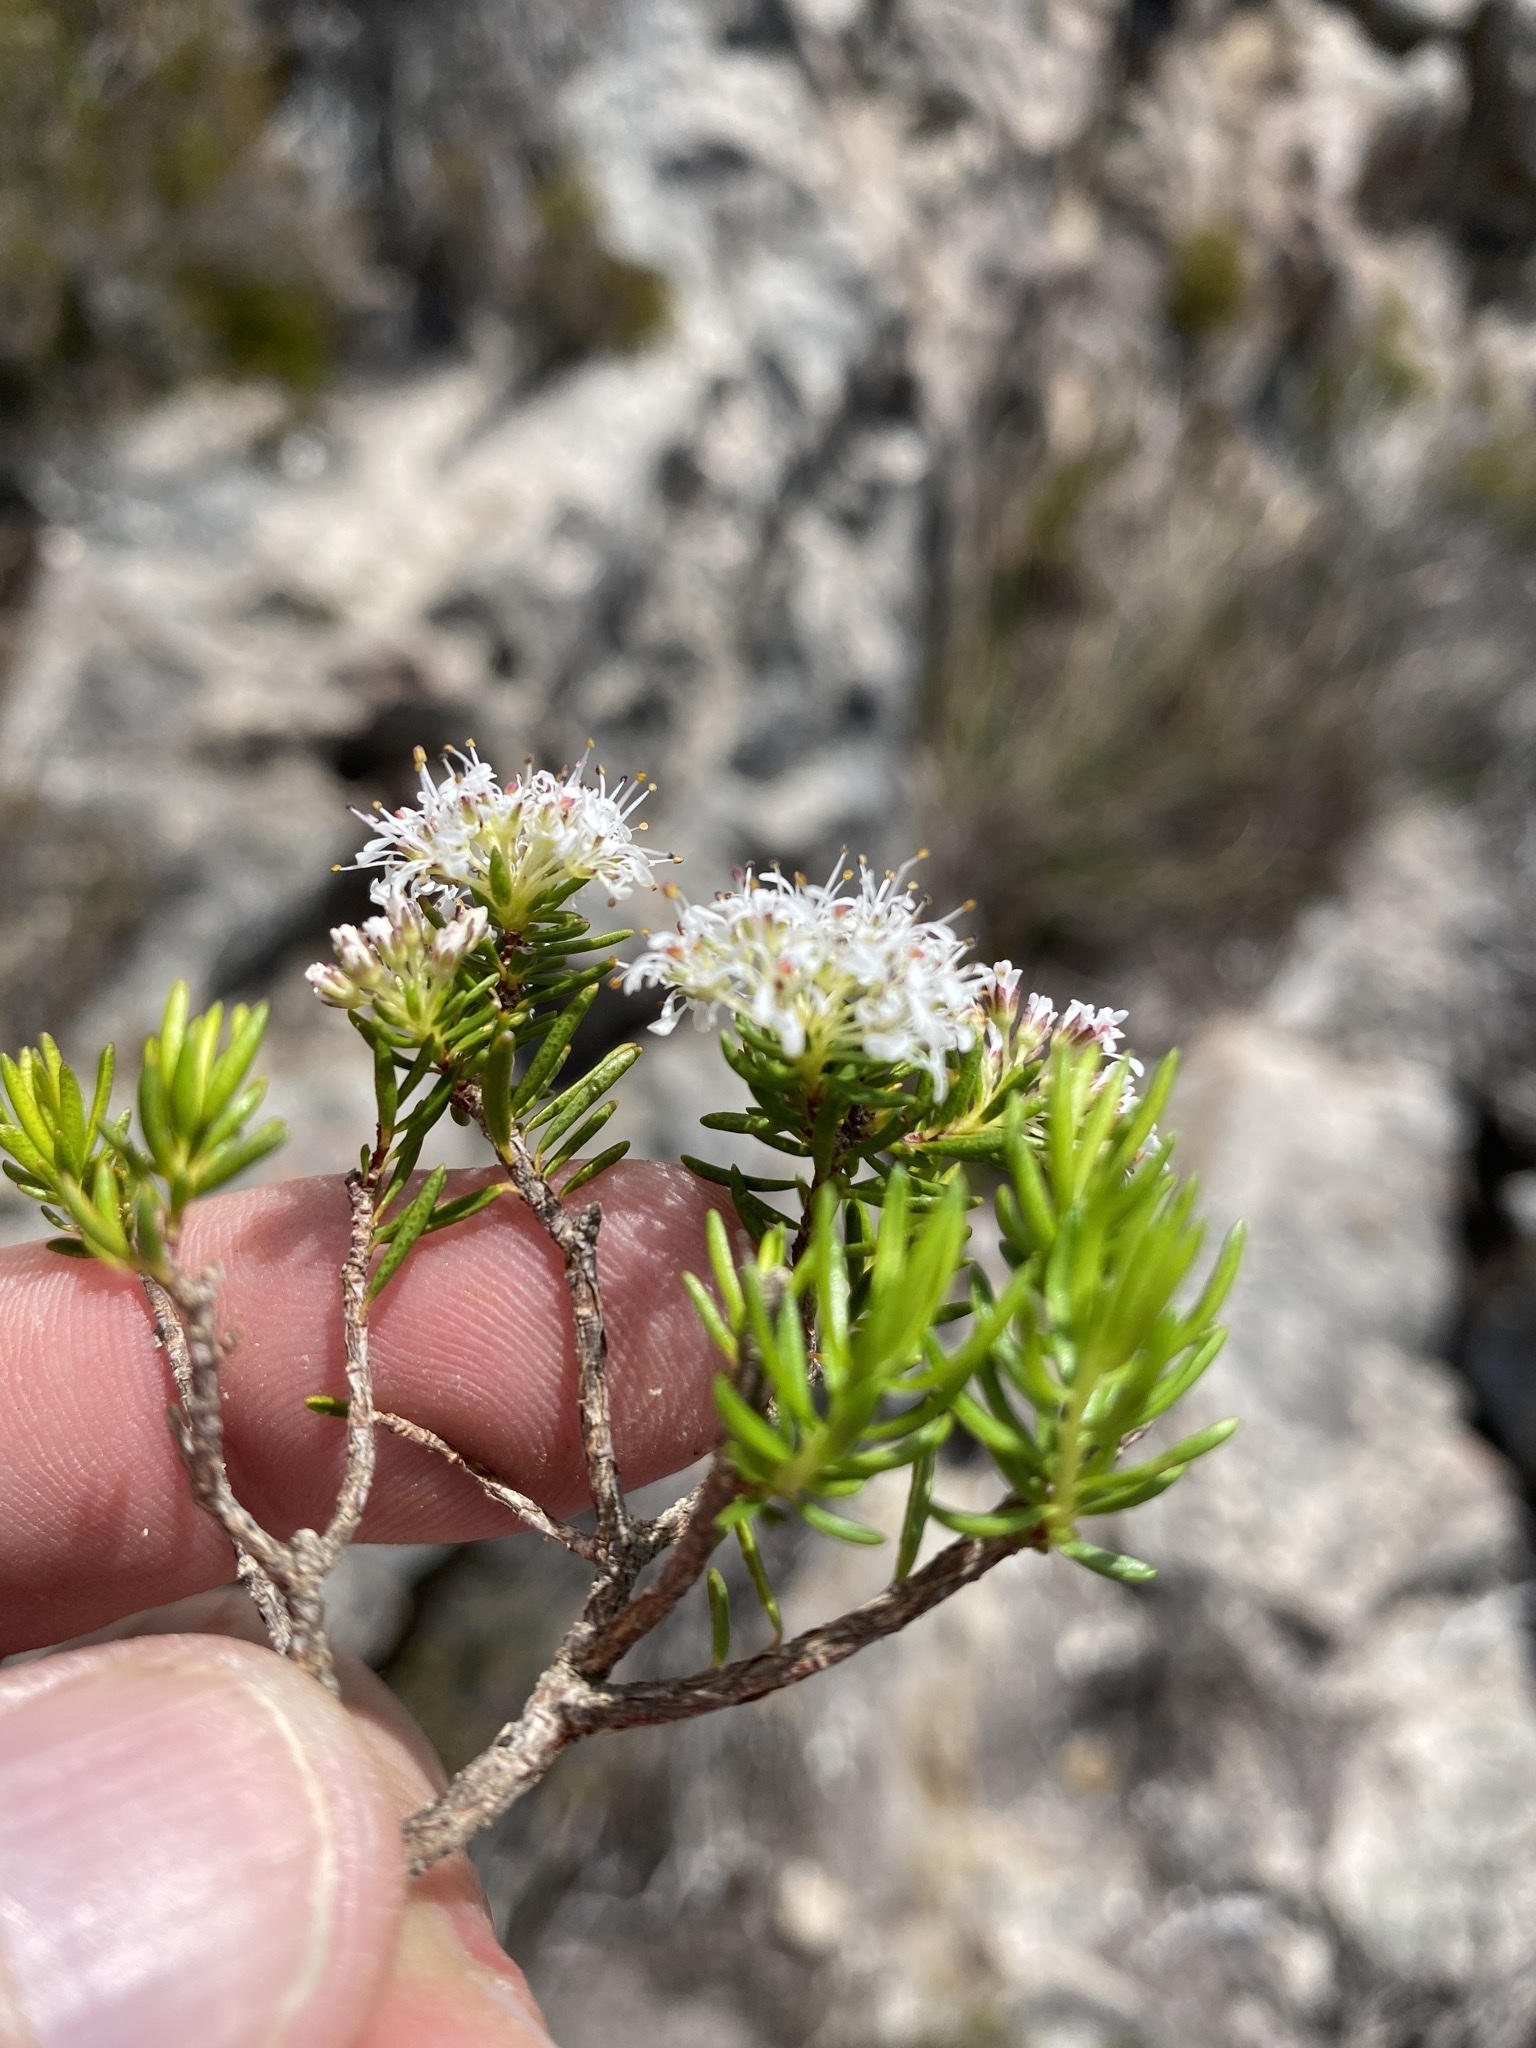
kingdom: Plantae
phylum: Tracheophyta
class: Magnoliopsida
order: Sapindales
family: Rutaceae
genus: Agathosma
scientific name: Agathosma virgata
